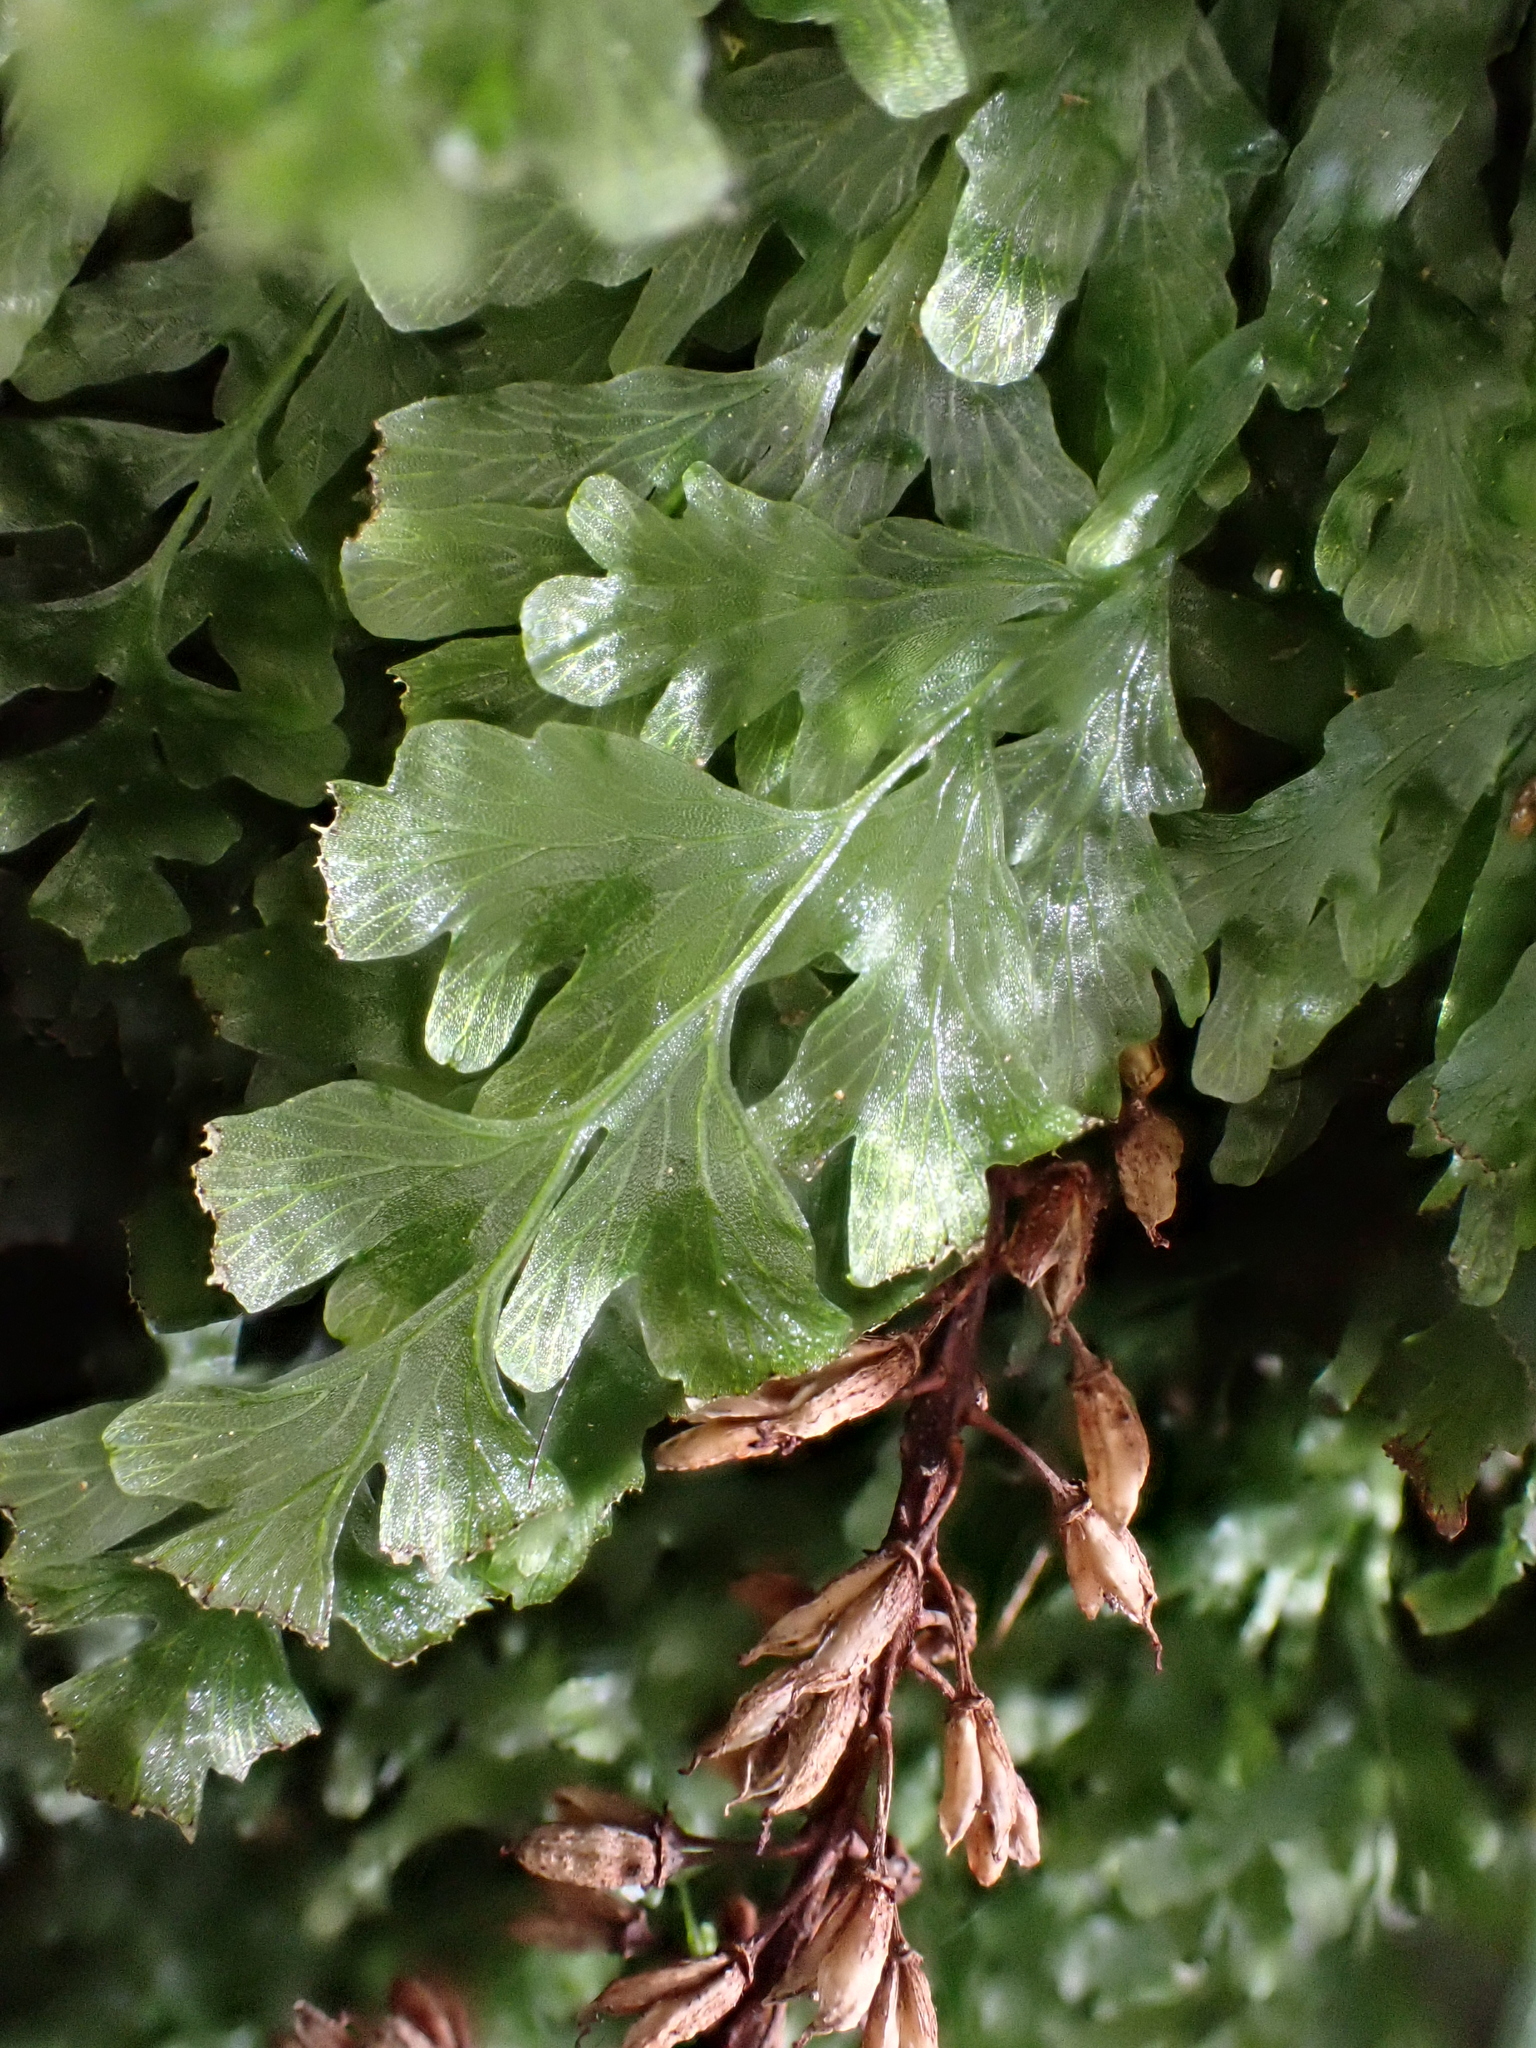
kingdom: Plantae
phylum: Tracheophyta
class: Polypodiopsida
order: Hymenophyllales
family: Hymenophyllaceae
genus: Polyphlebium
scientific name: Polyphlebium venosum
